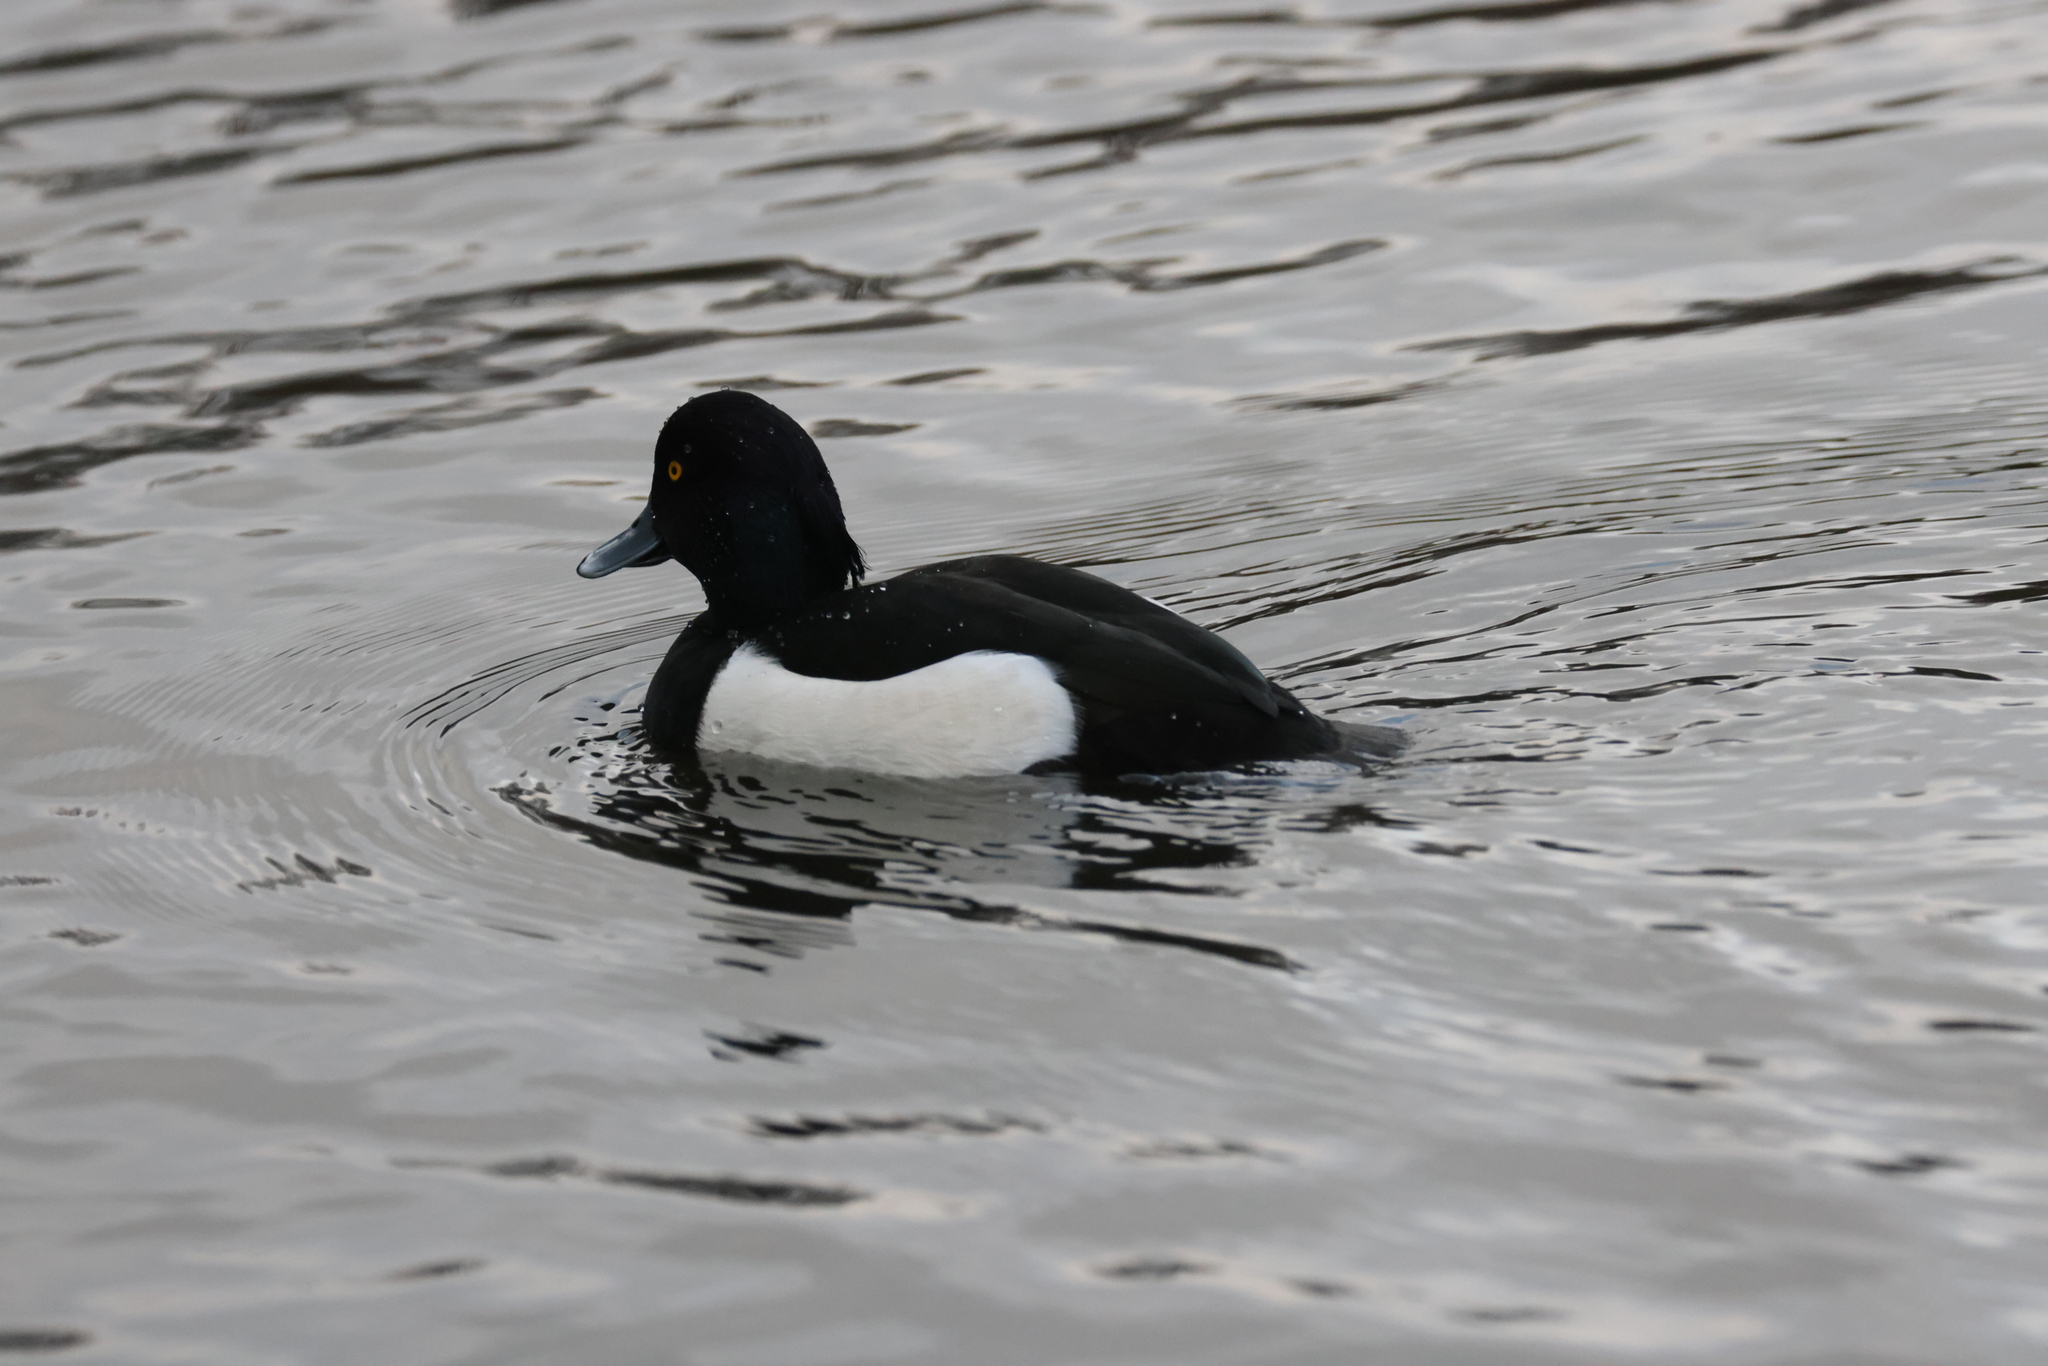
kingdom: Animalia
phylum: Chordata
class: Aves
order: Anseriformes
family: Anatidae
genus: Aythya
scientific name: Aythya fuligula
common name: Tufted duck
